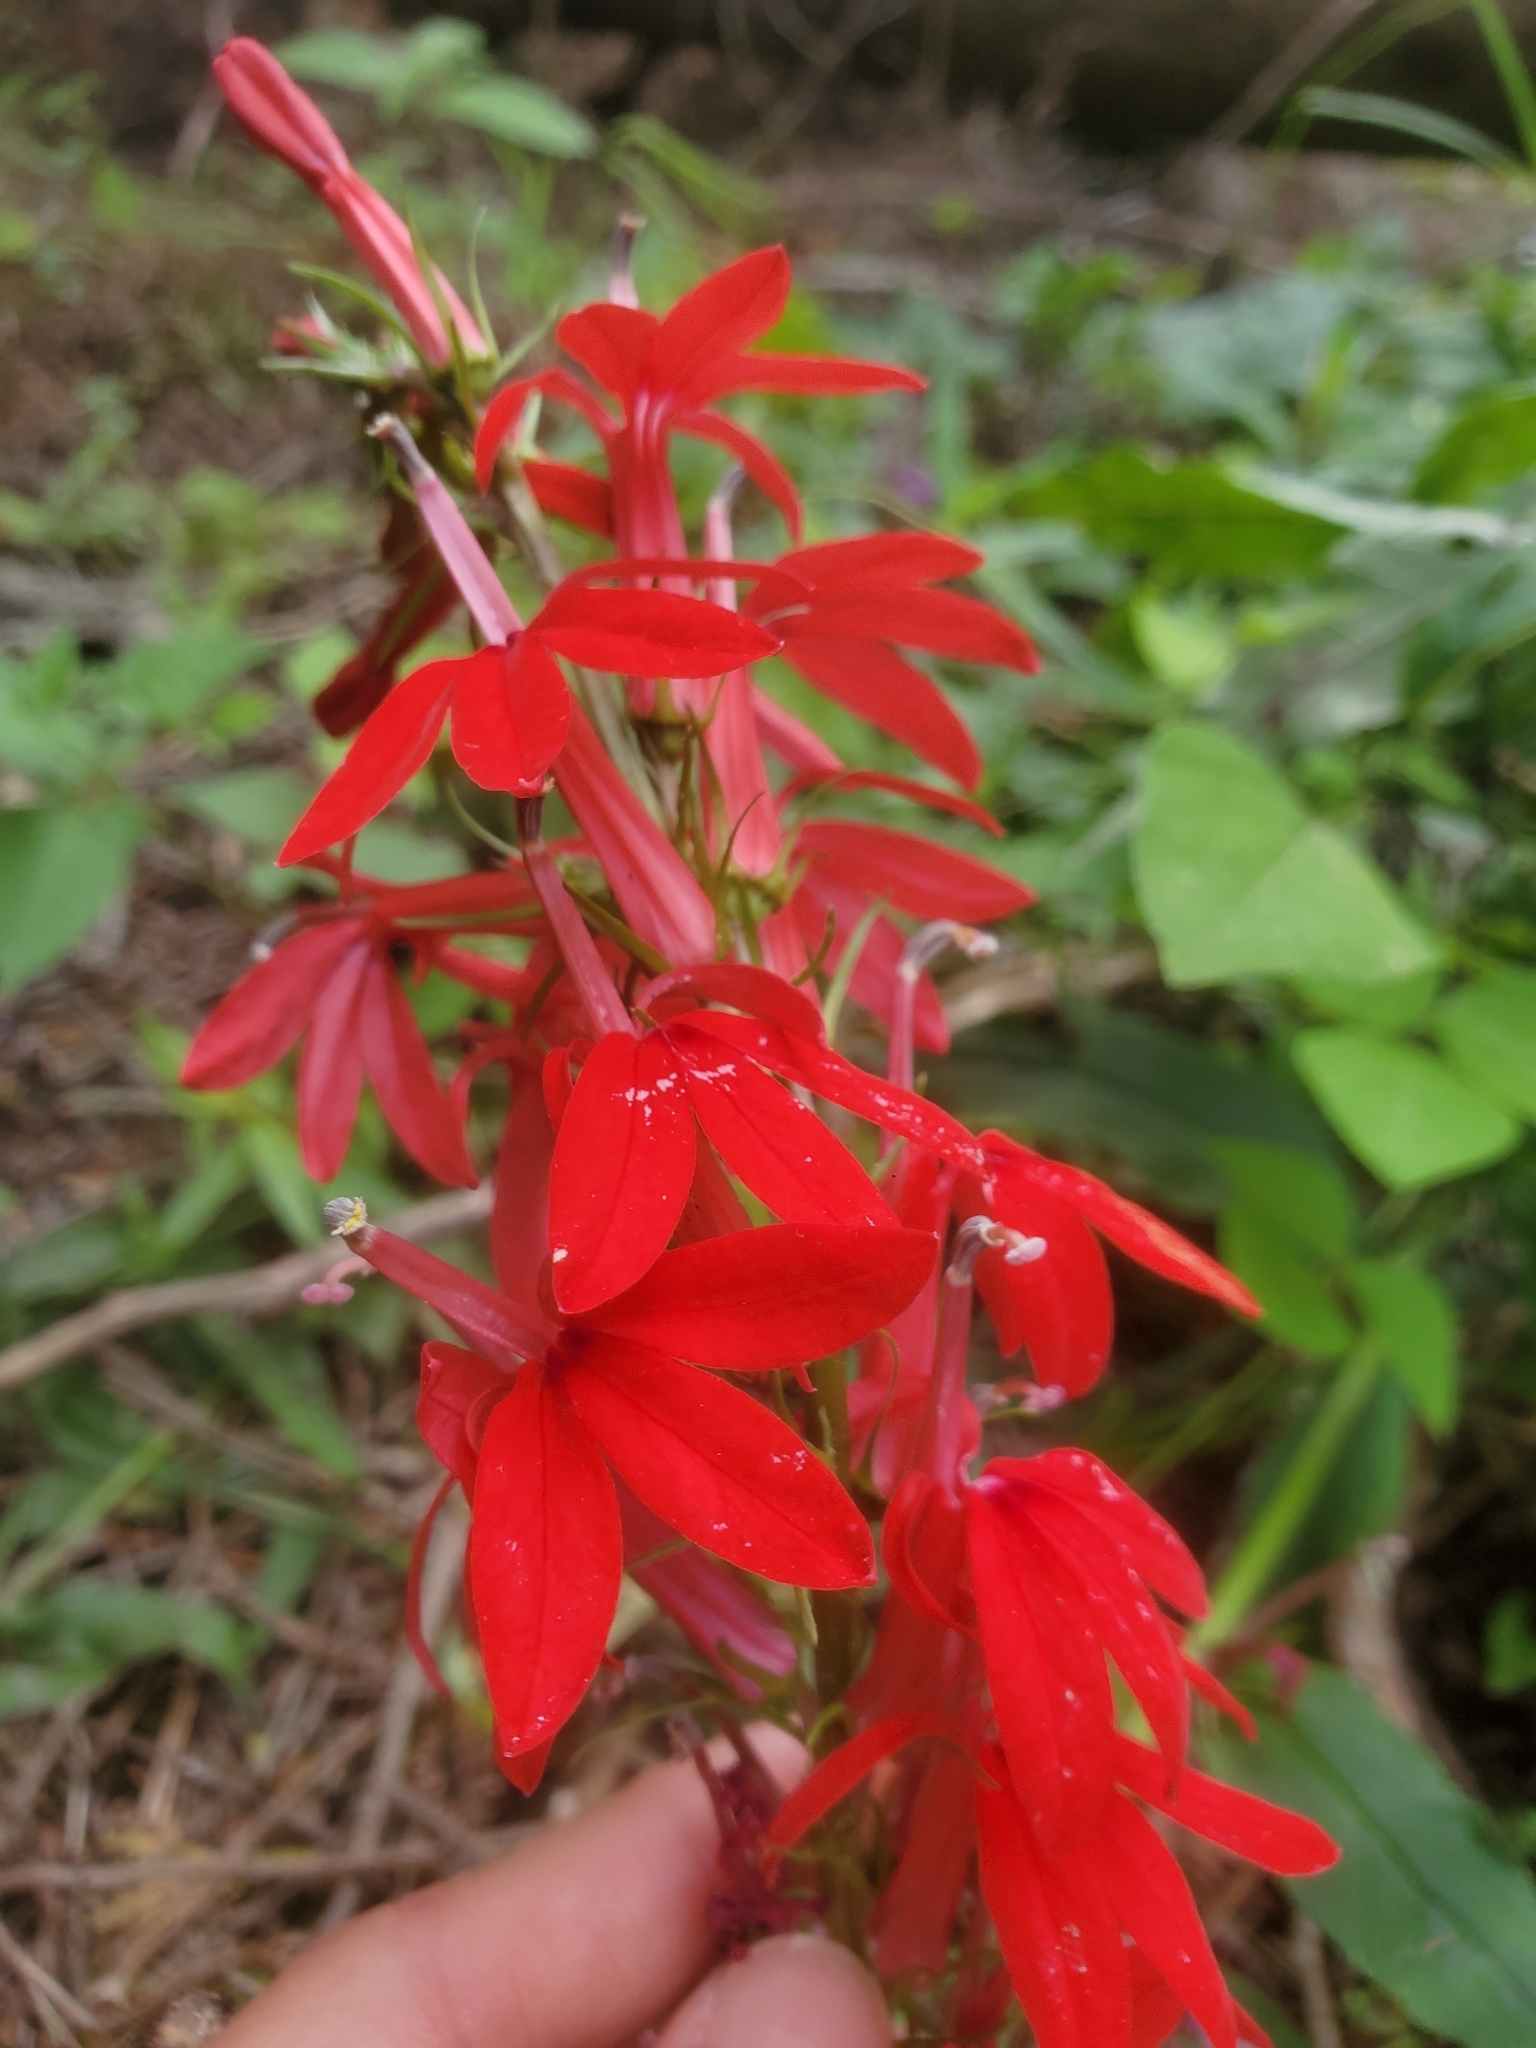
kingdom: Plantae
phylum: Tracheophyta
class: Magnoliopsida
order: Asterales
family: Campanulaceae
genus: Lobelia
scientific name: Lobelia cardinalis
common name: Cardinal flower
